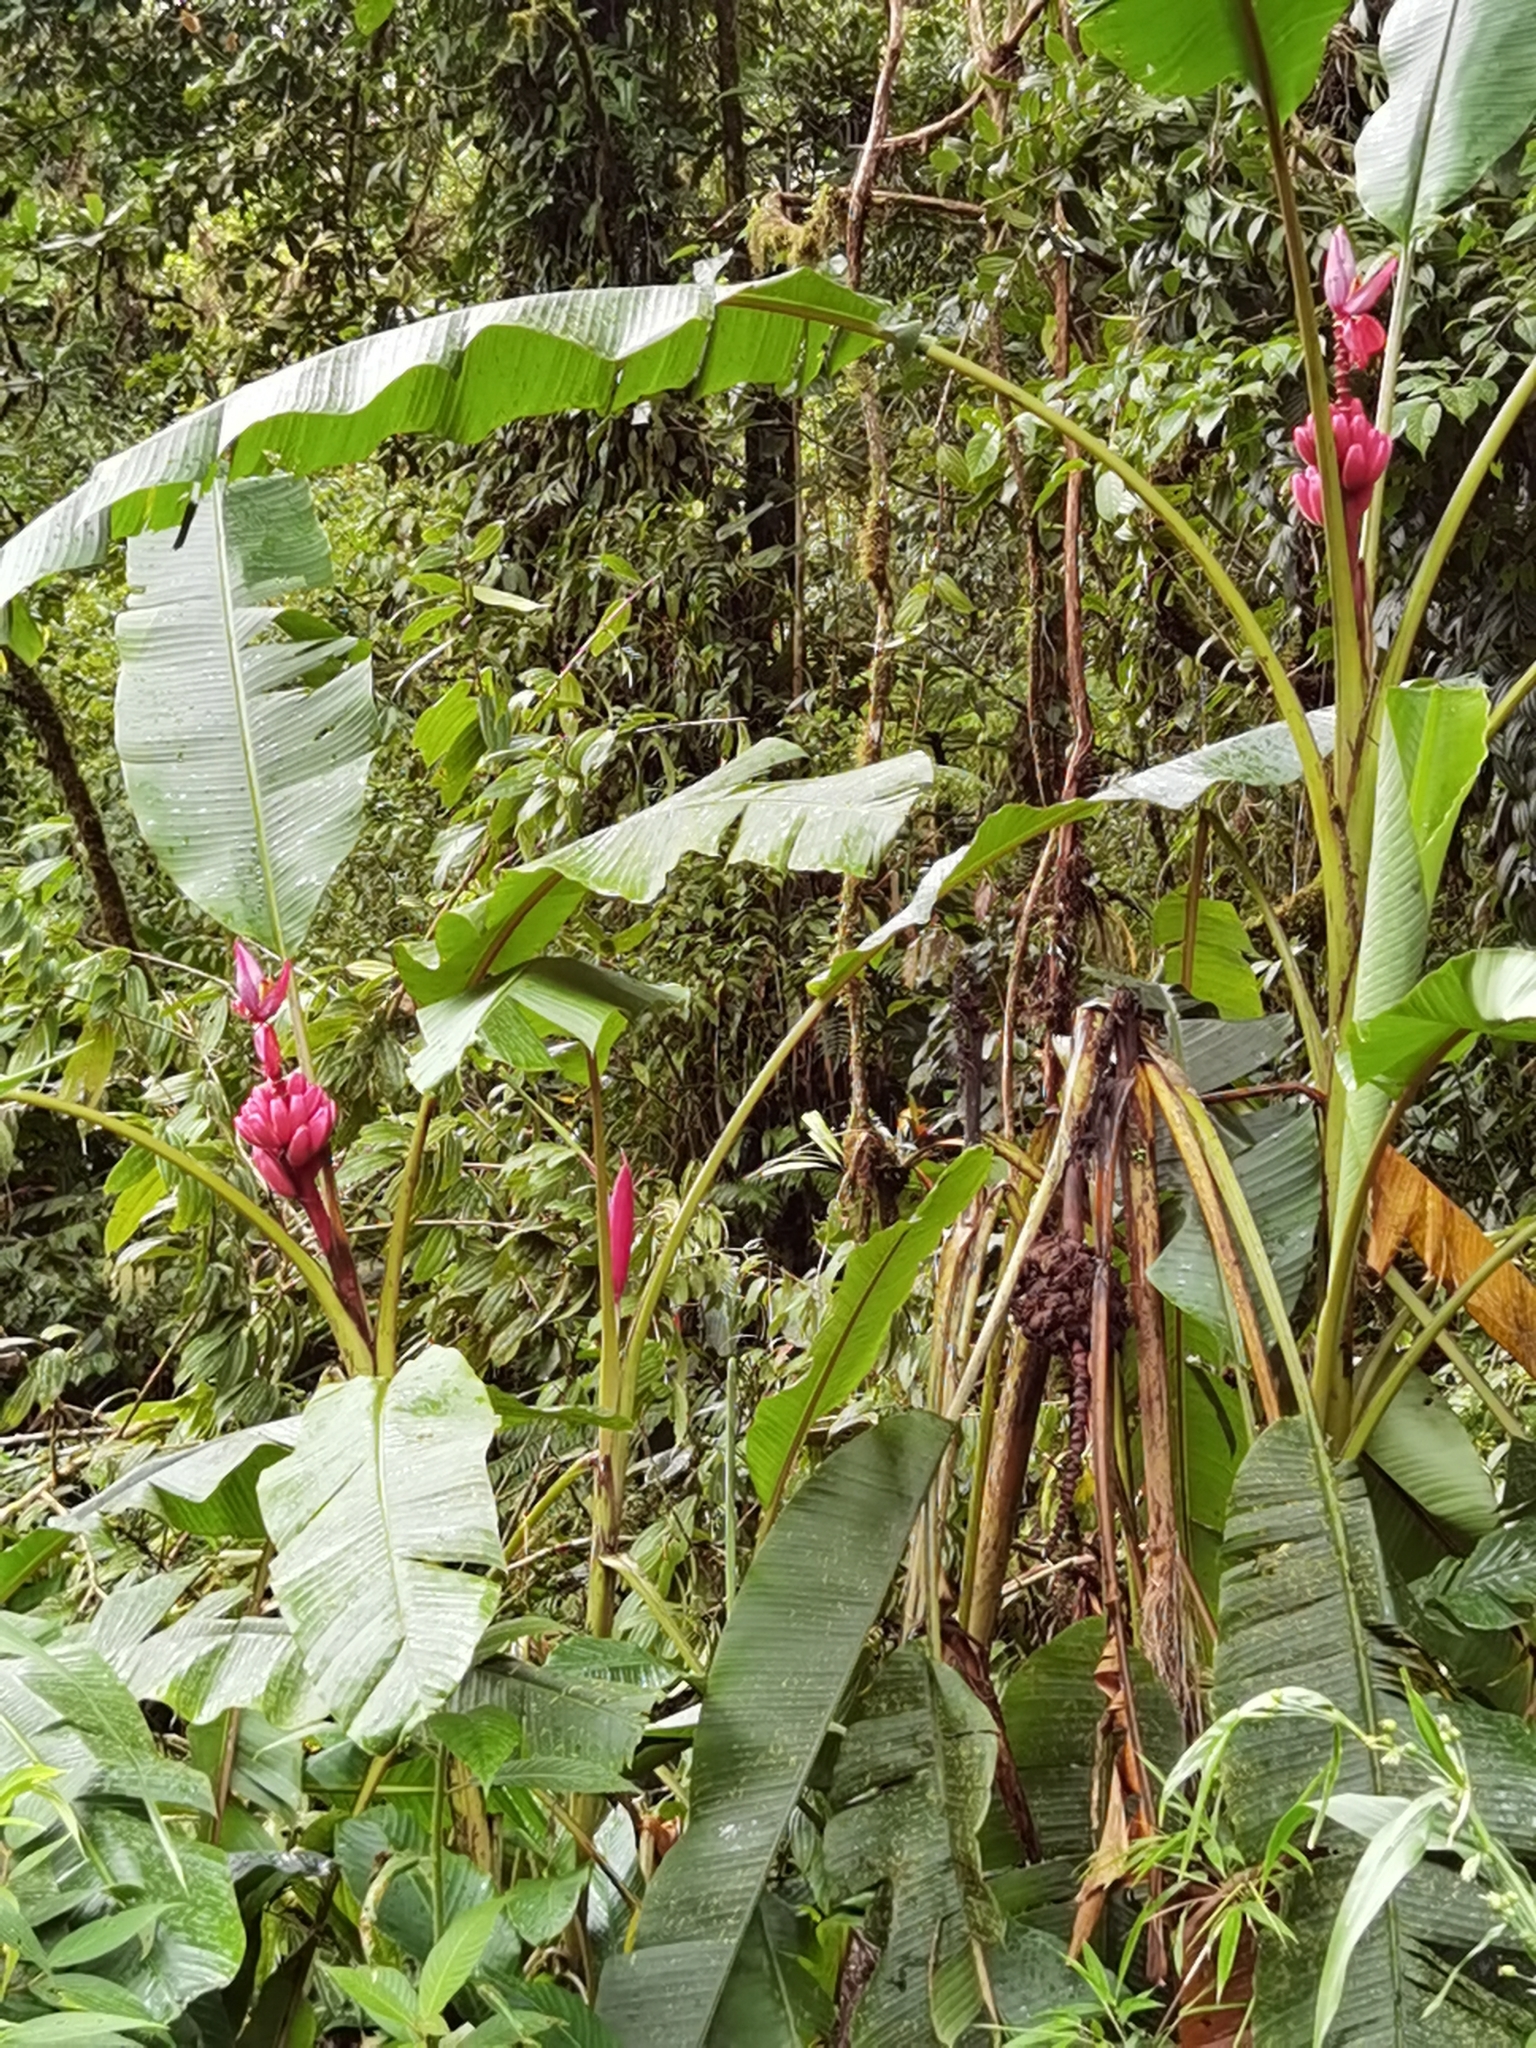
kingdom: Plantae
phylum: Tracheophyta
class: Liliopsida
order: Zingiberales
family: Musaceae
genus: Musa
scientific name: Musa velutina
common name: Pink velvet banana
